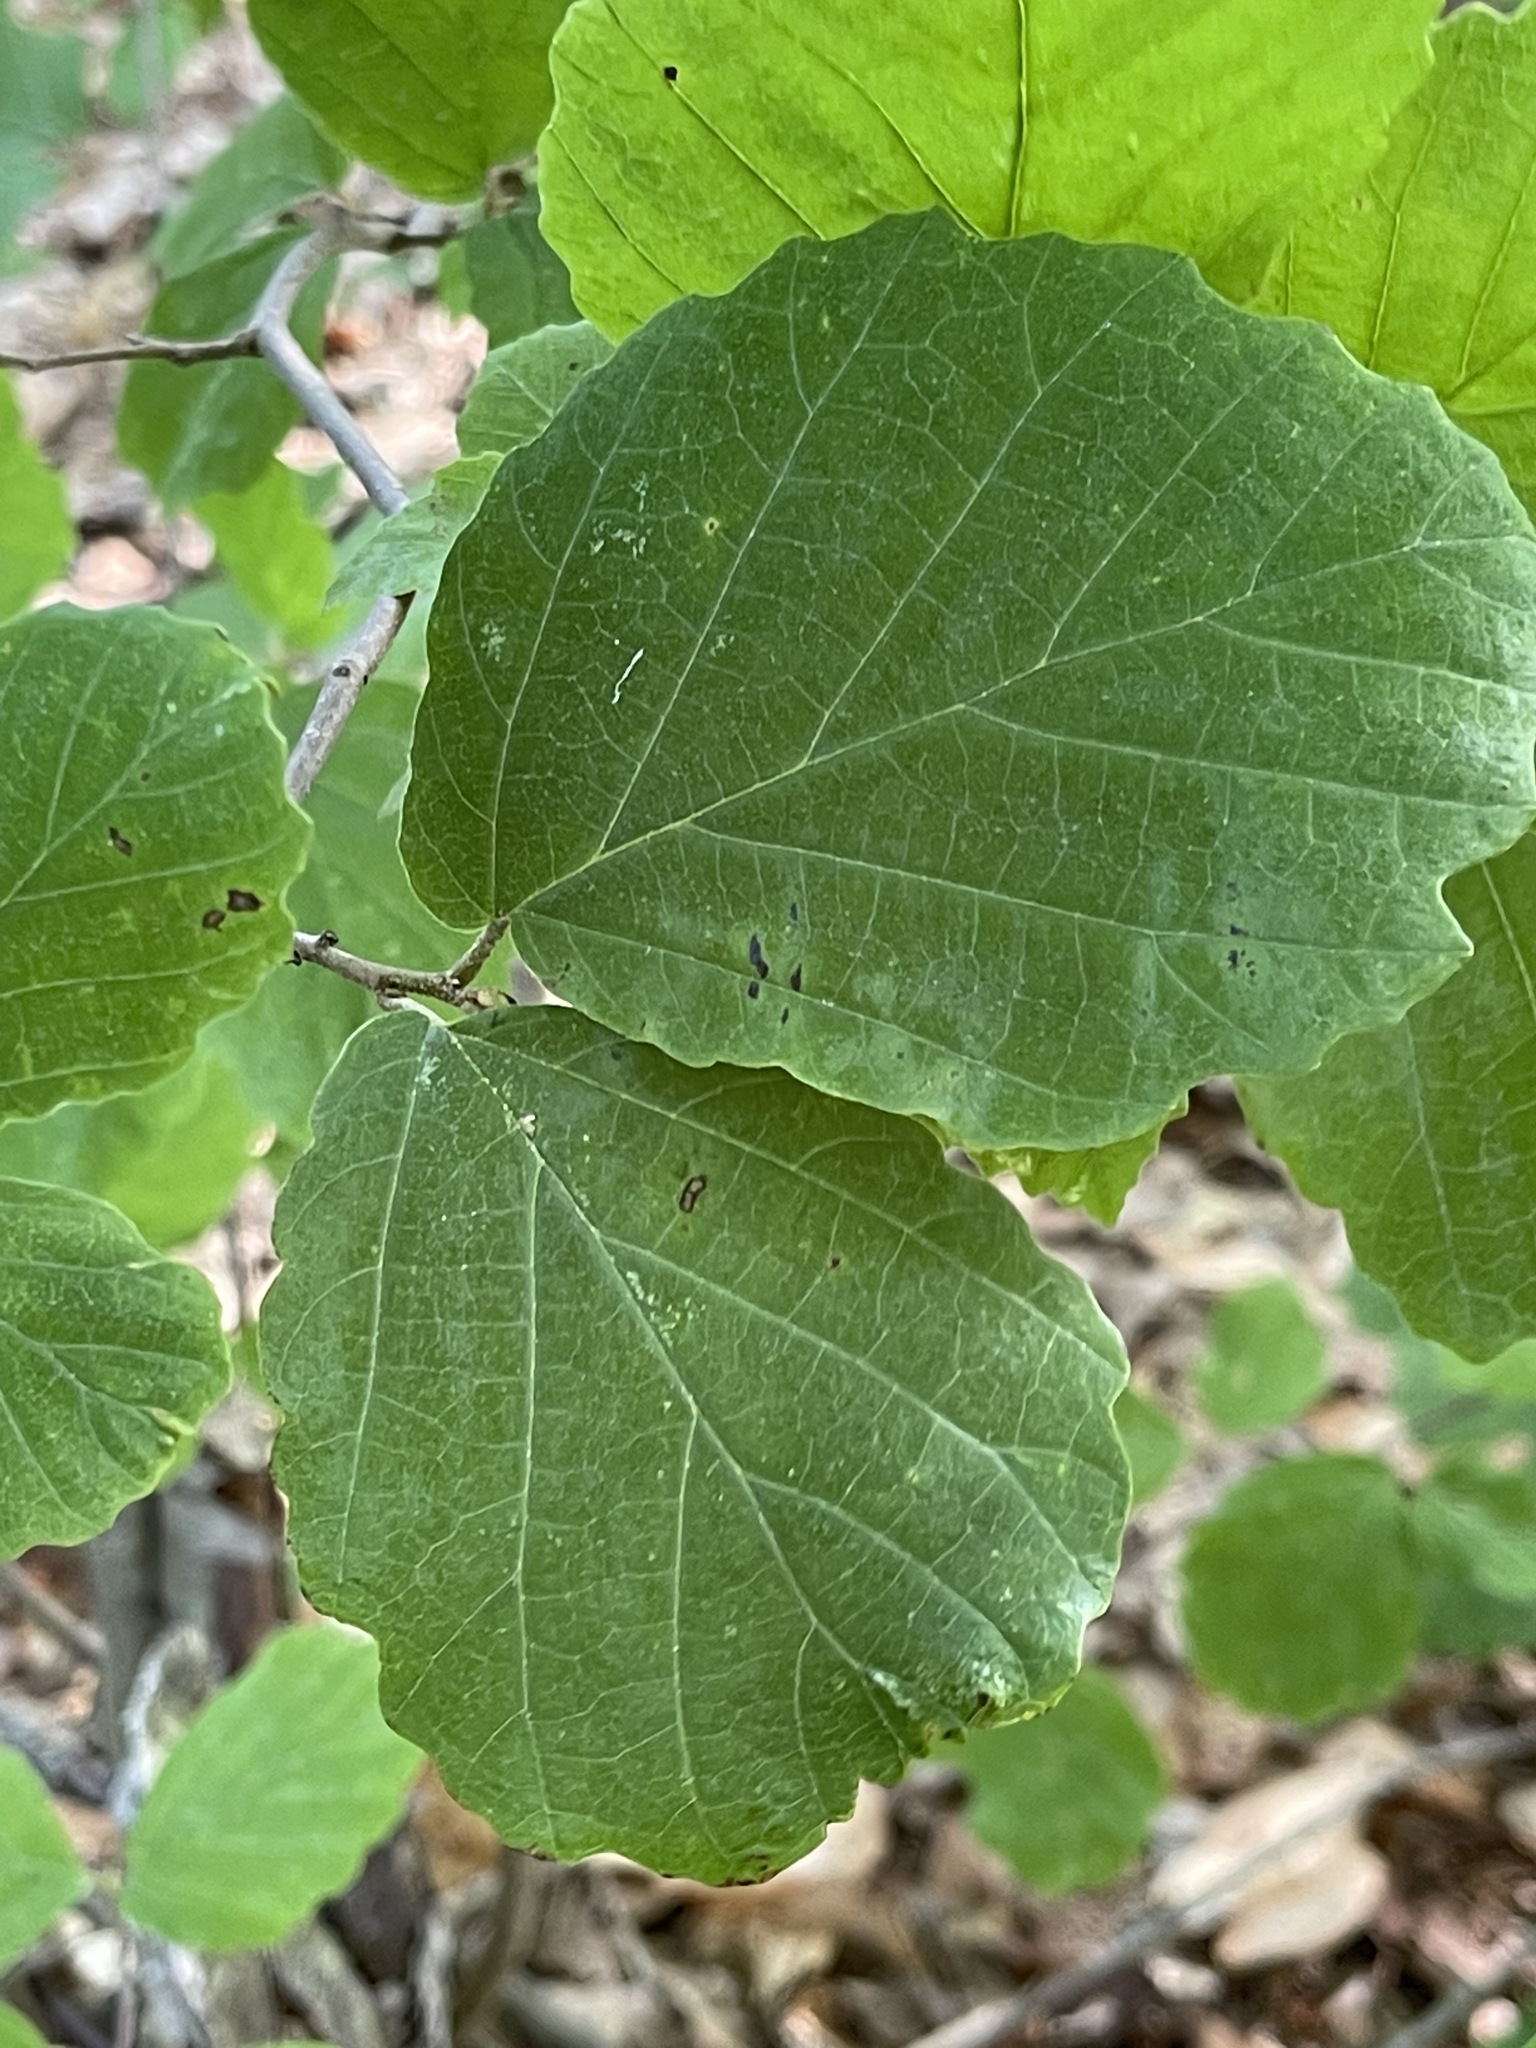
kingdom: Plantae
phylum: Tracheophyta
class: Magnoliopsida
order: Saxifragales
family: Hamamelidaceae
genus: Hamamelis
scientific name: Hamamelis virginiana
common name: Witch-hazel
